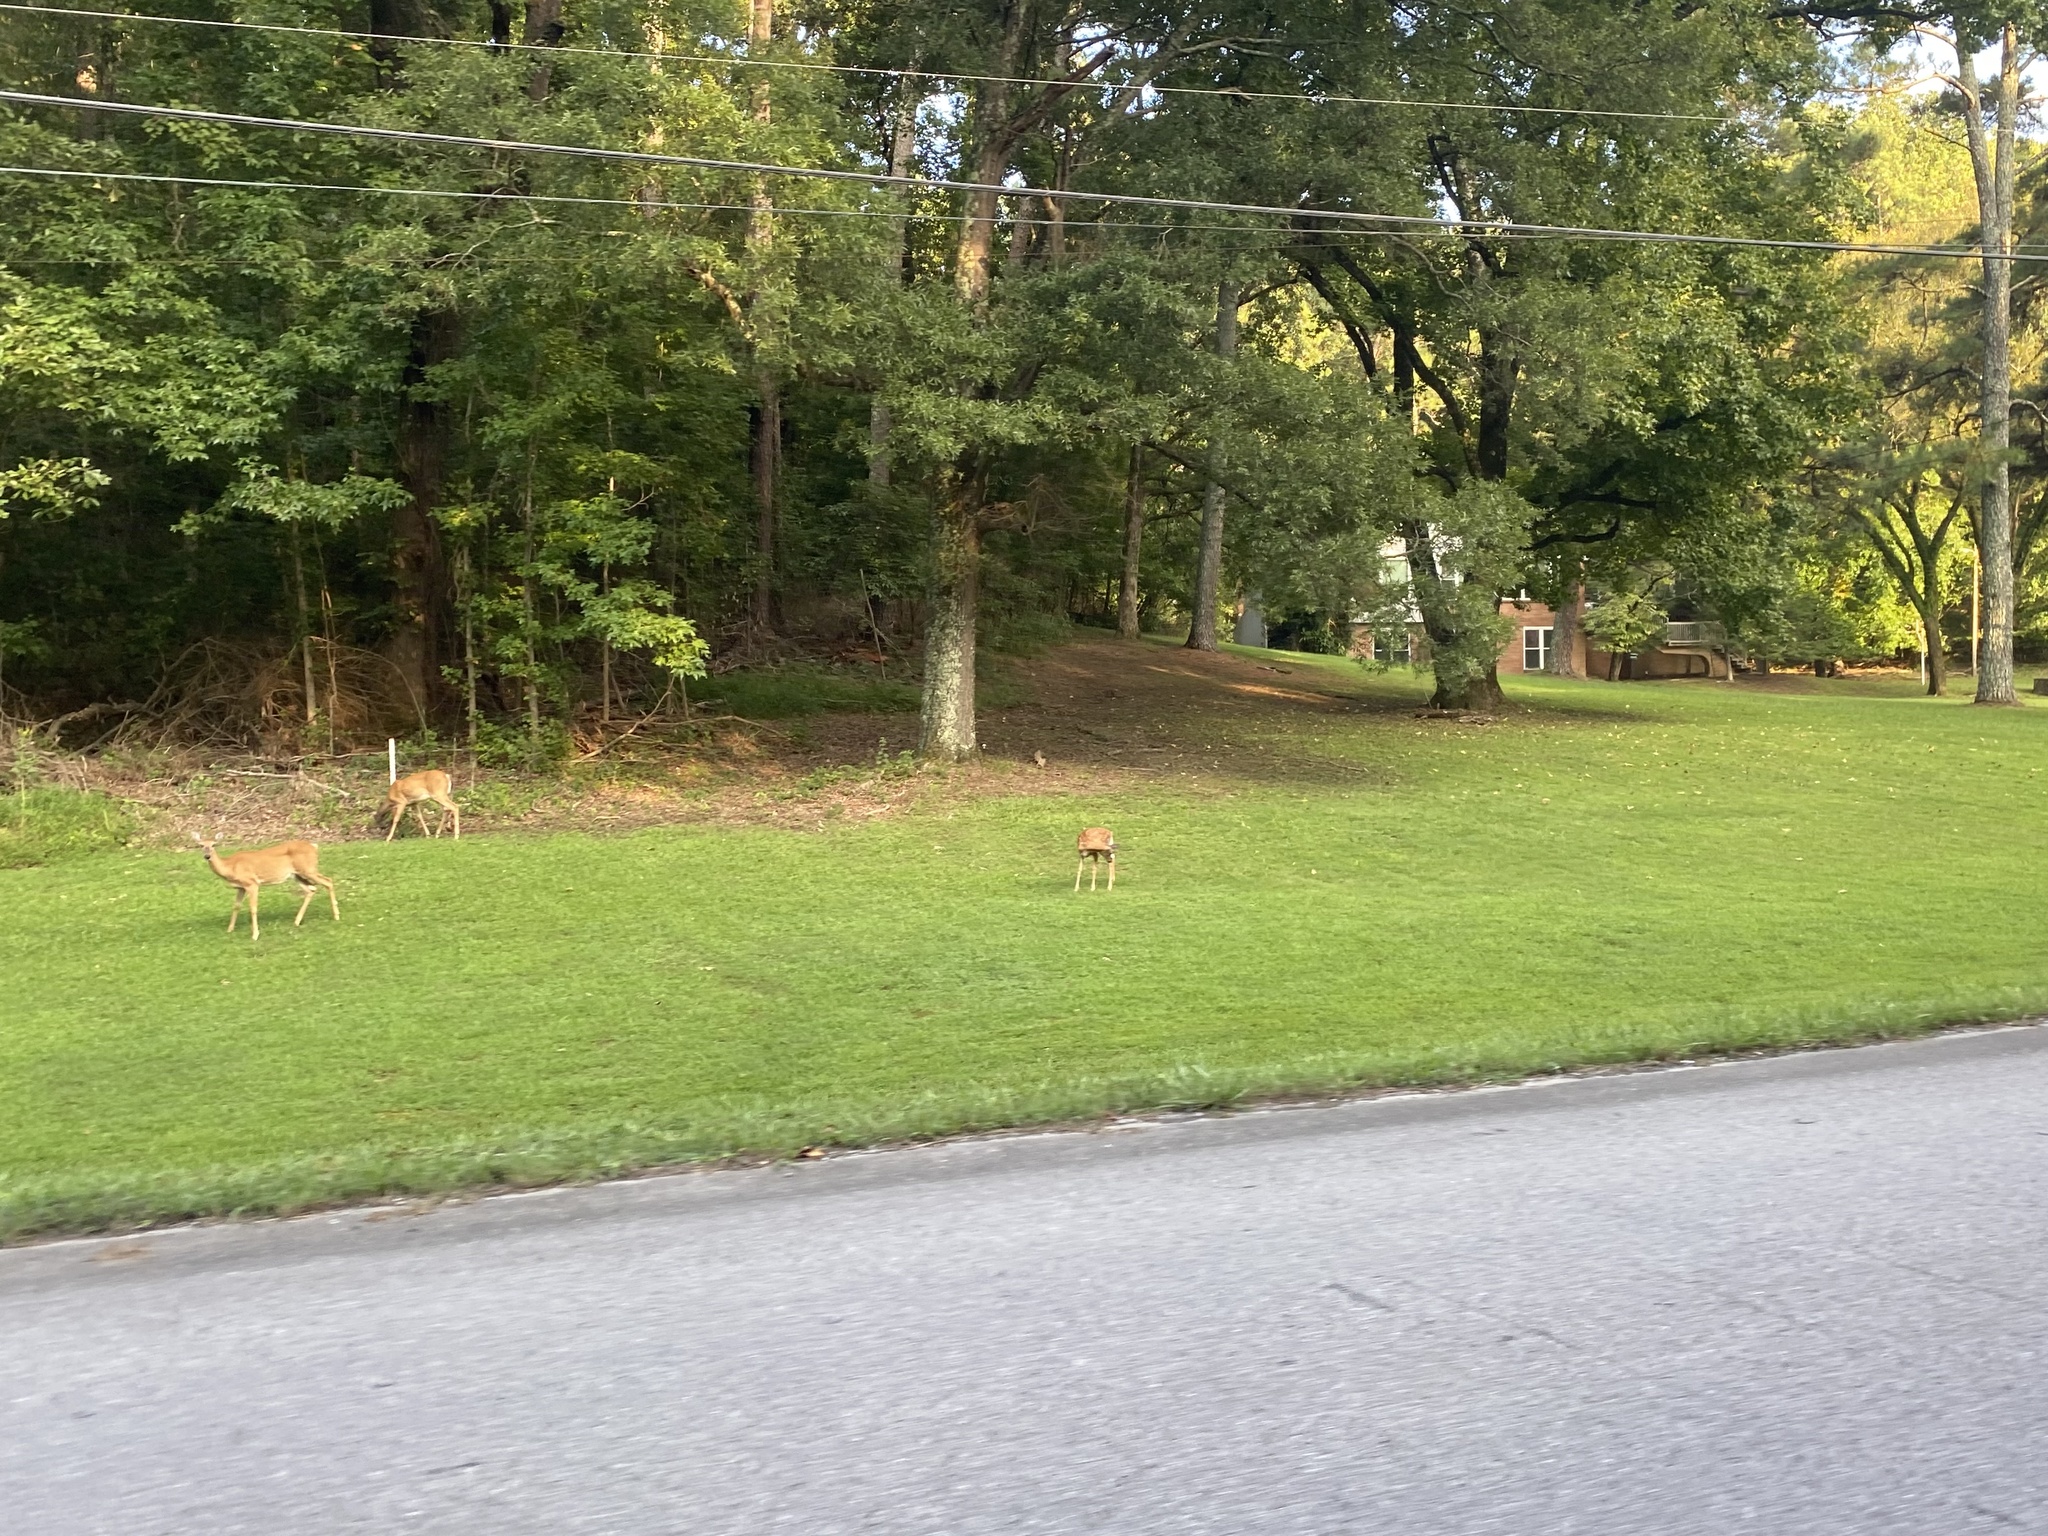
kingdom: Animalia
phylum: Chordata
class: Mammalia
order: Artiodactyla
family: Cervidae
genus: Odocoileus
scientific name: Odocoileus virginianus
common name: White-tailed deer
